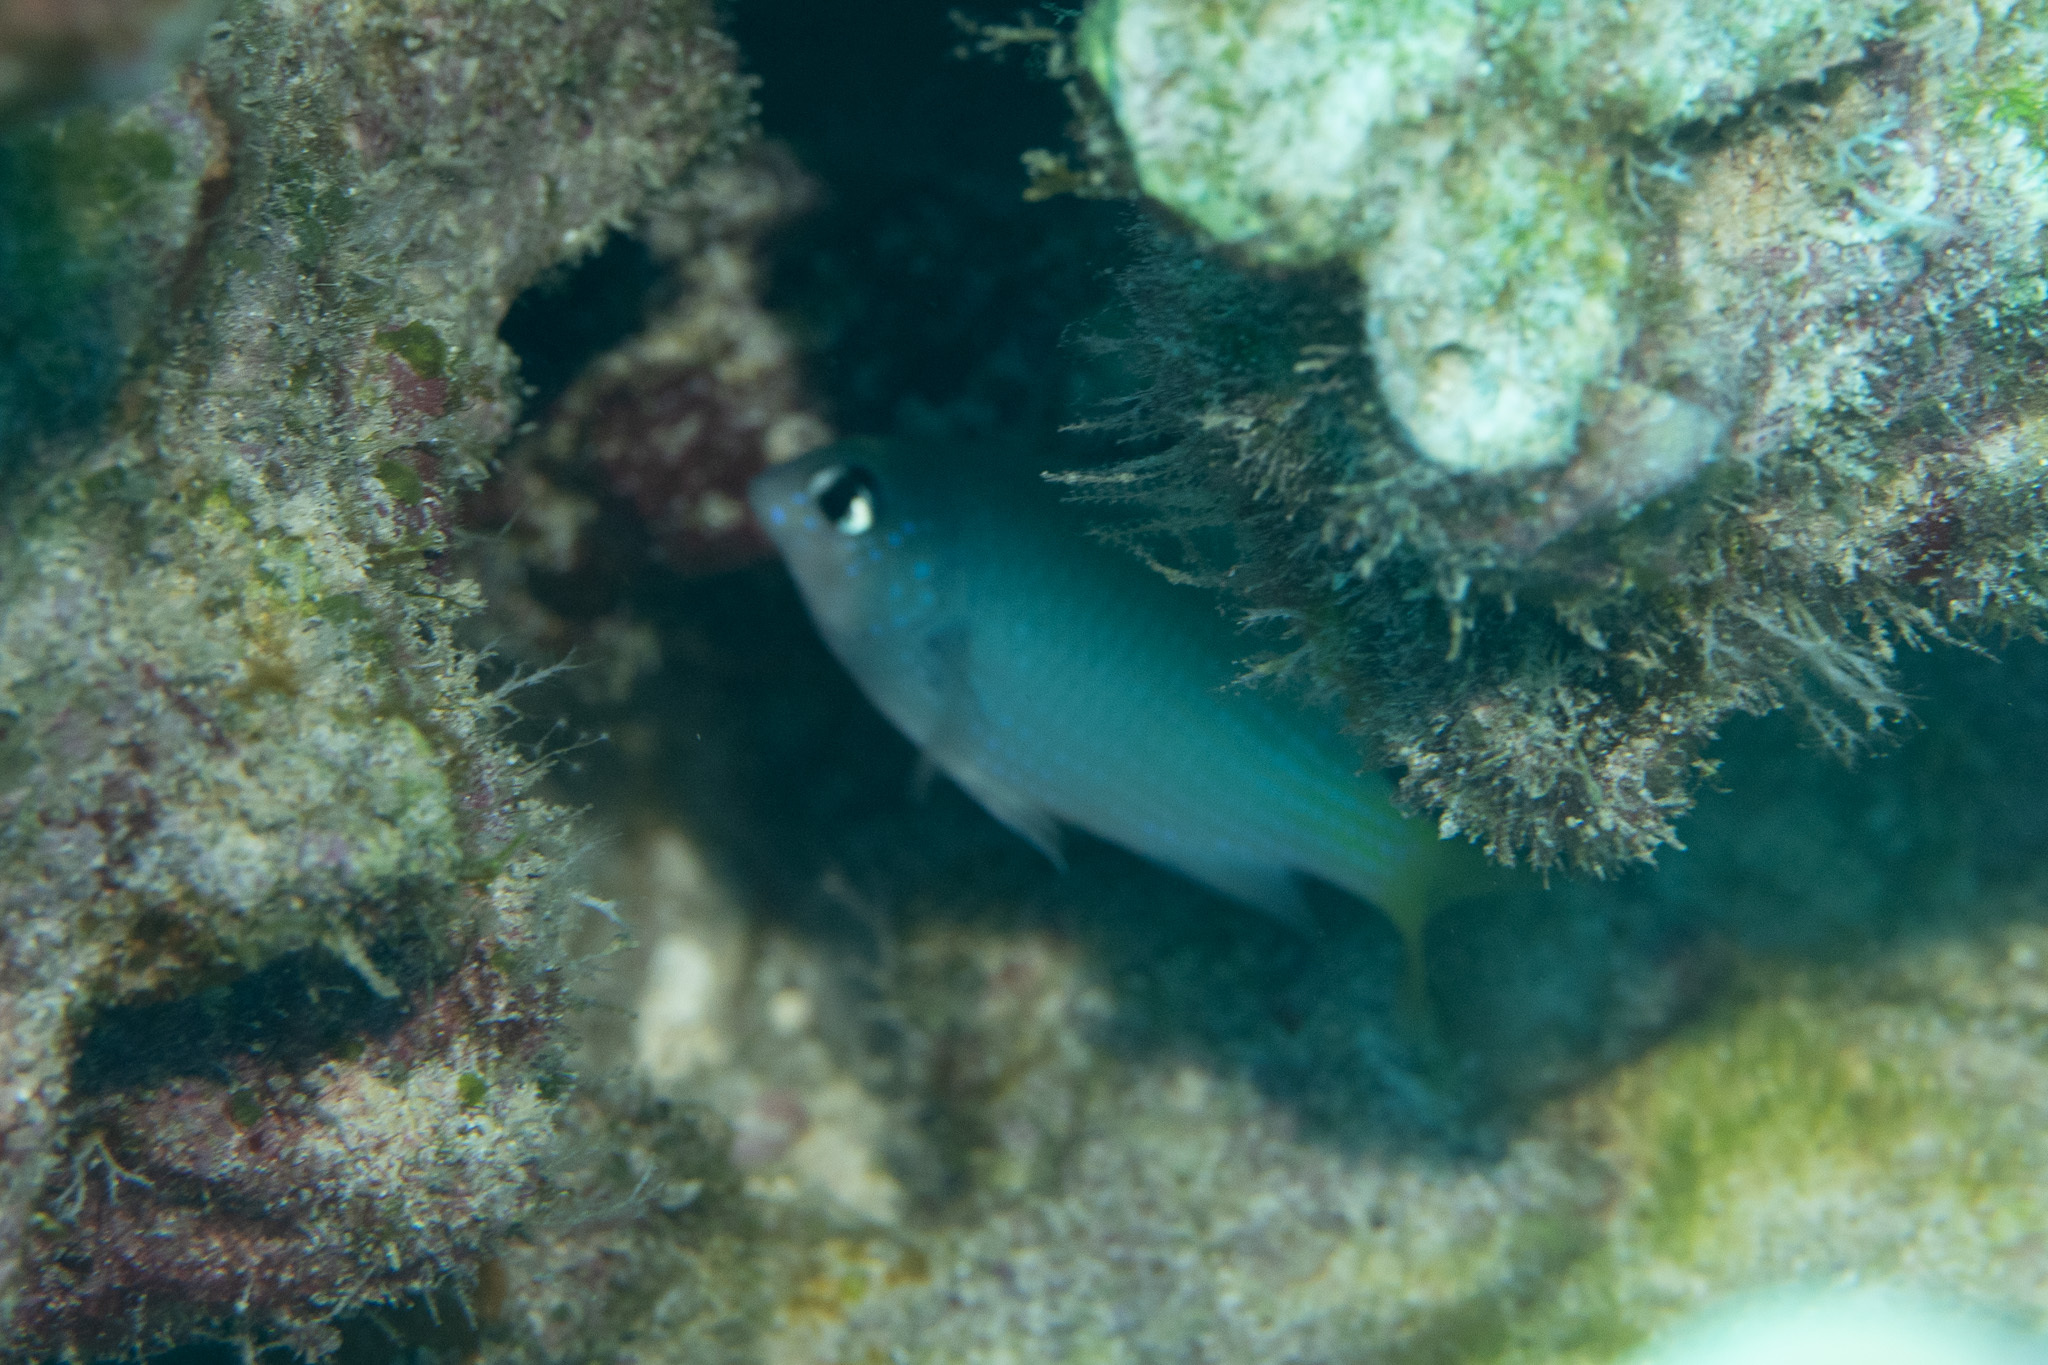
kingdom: Animalia
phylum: Chordata
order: Perciformes
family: Pomacentridae
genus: Plectroglyphidodon
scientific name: Plectroglyphidodon imparipennis
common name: Brighteye damsel
